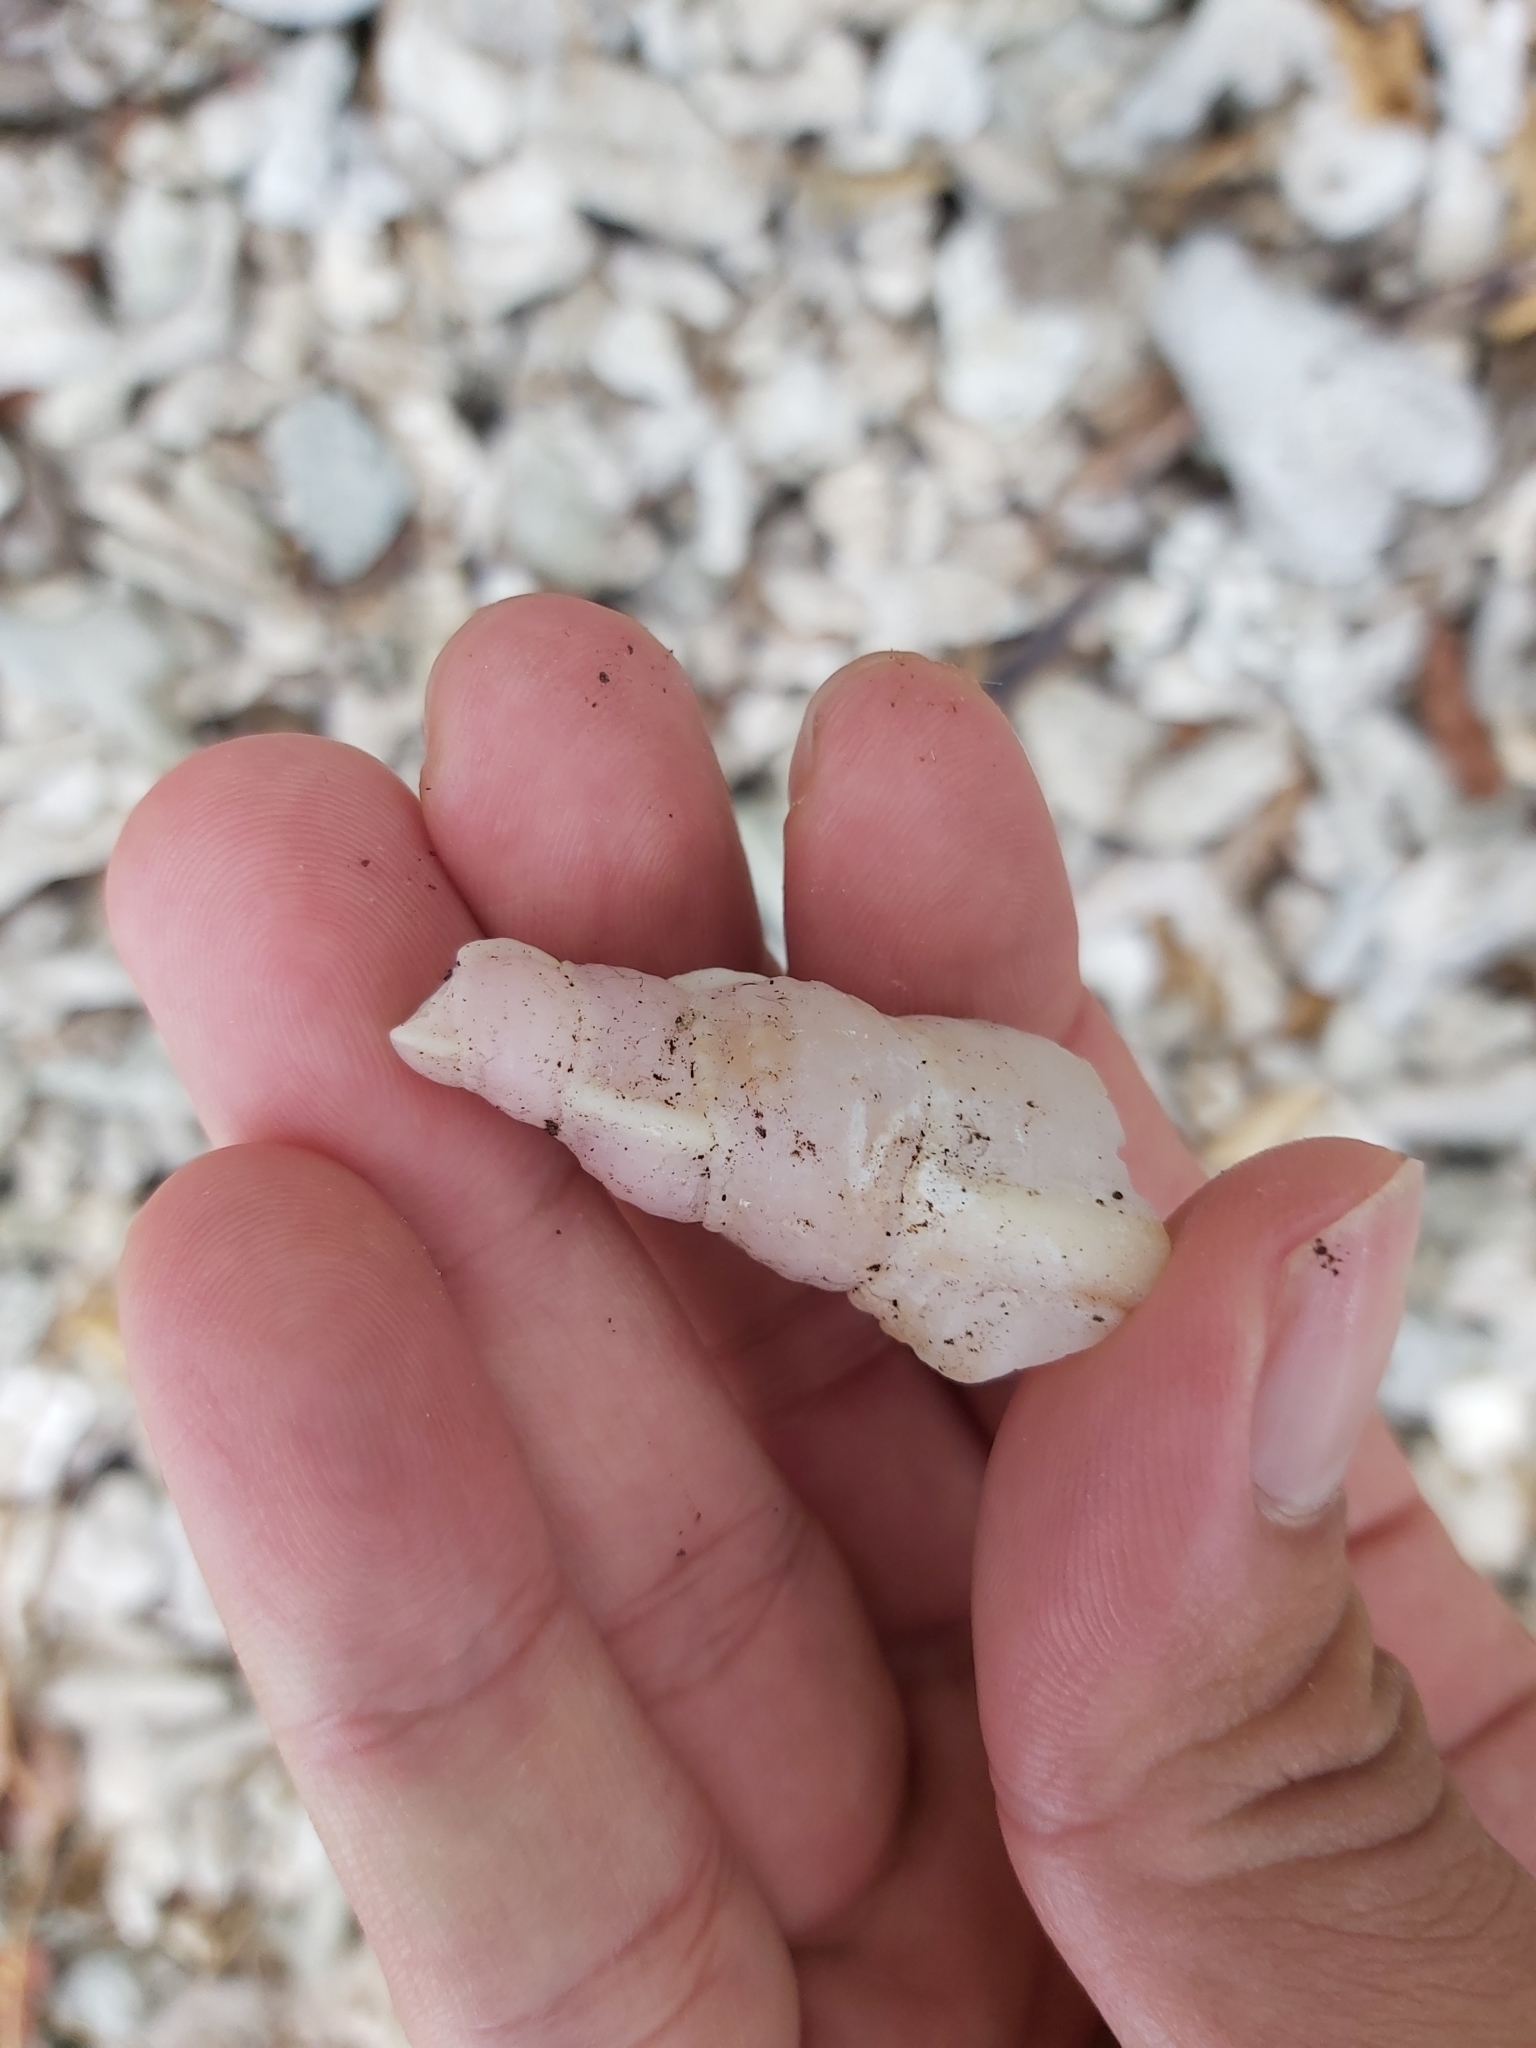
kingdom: Animalia
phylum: Mollusca
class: Gastropoda
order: Littorinimorpha
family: Charoniidae
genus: Charonia
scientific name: Charonia tritonis
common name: Pacific triton
